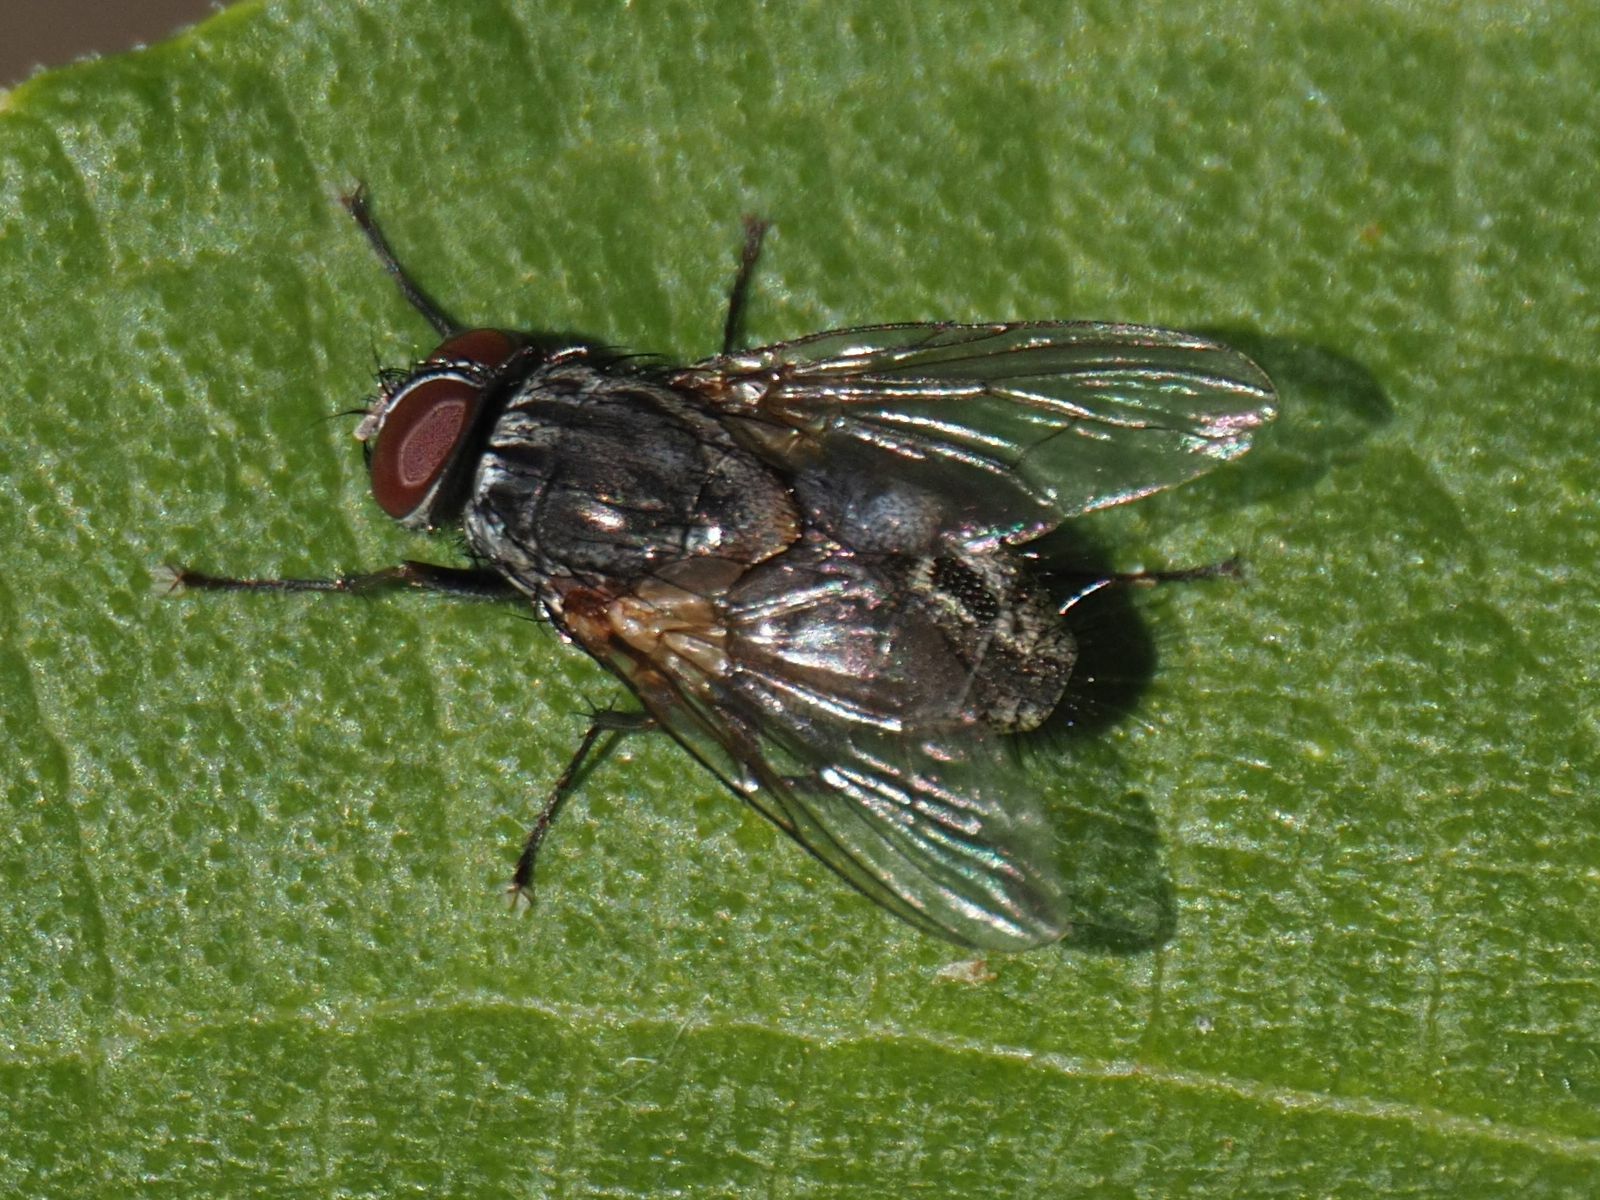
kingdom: Animalia
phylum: Arthropoda
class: Insecta
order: Diptera
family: Muscidae
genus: Muscina
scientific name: Muscina stabulans
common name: False stable fly
